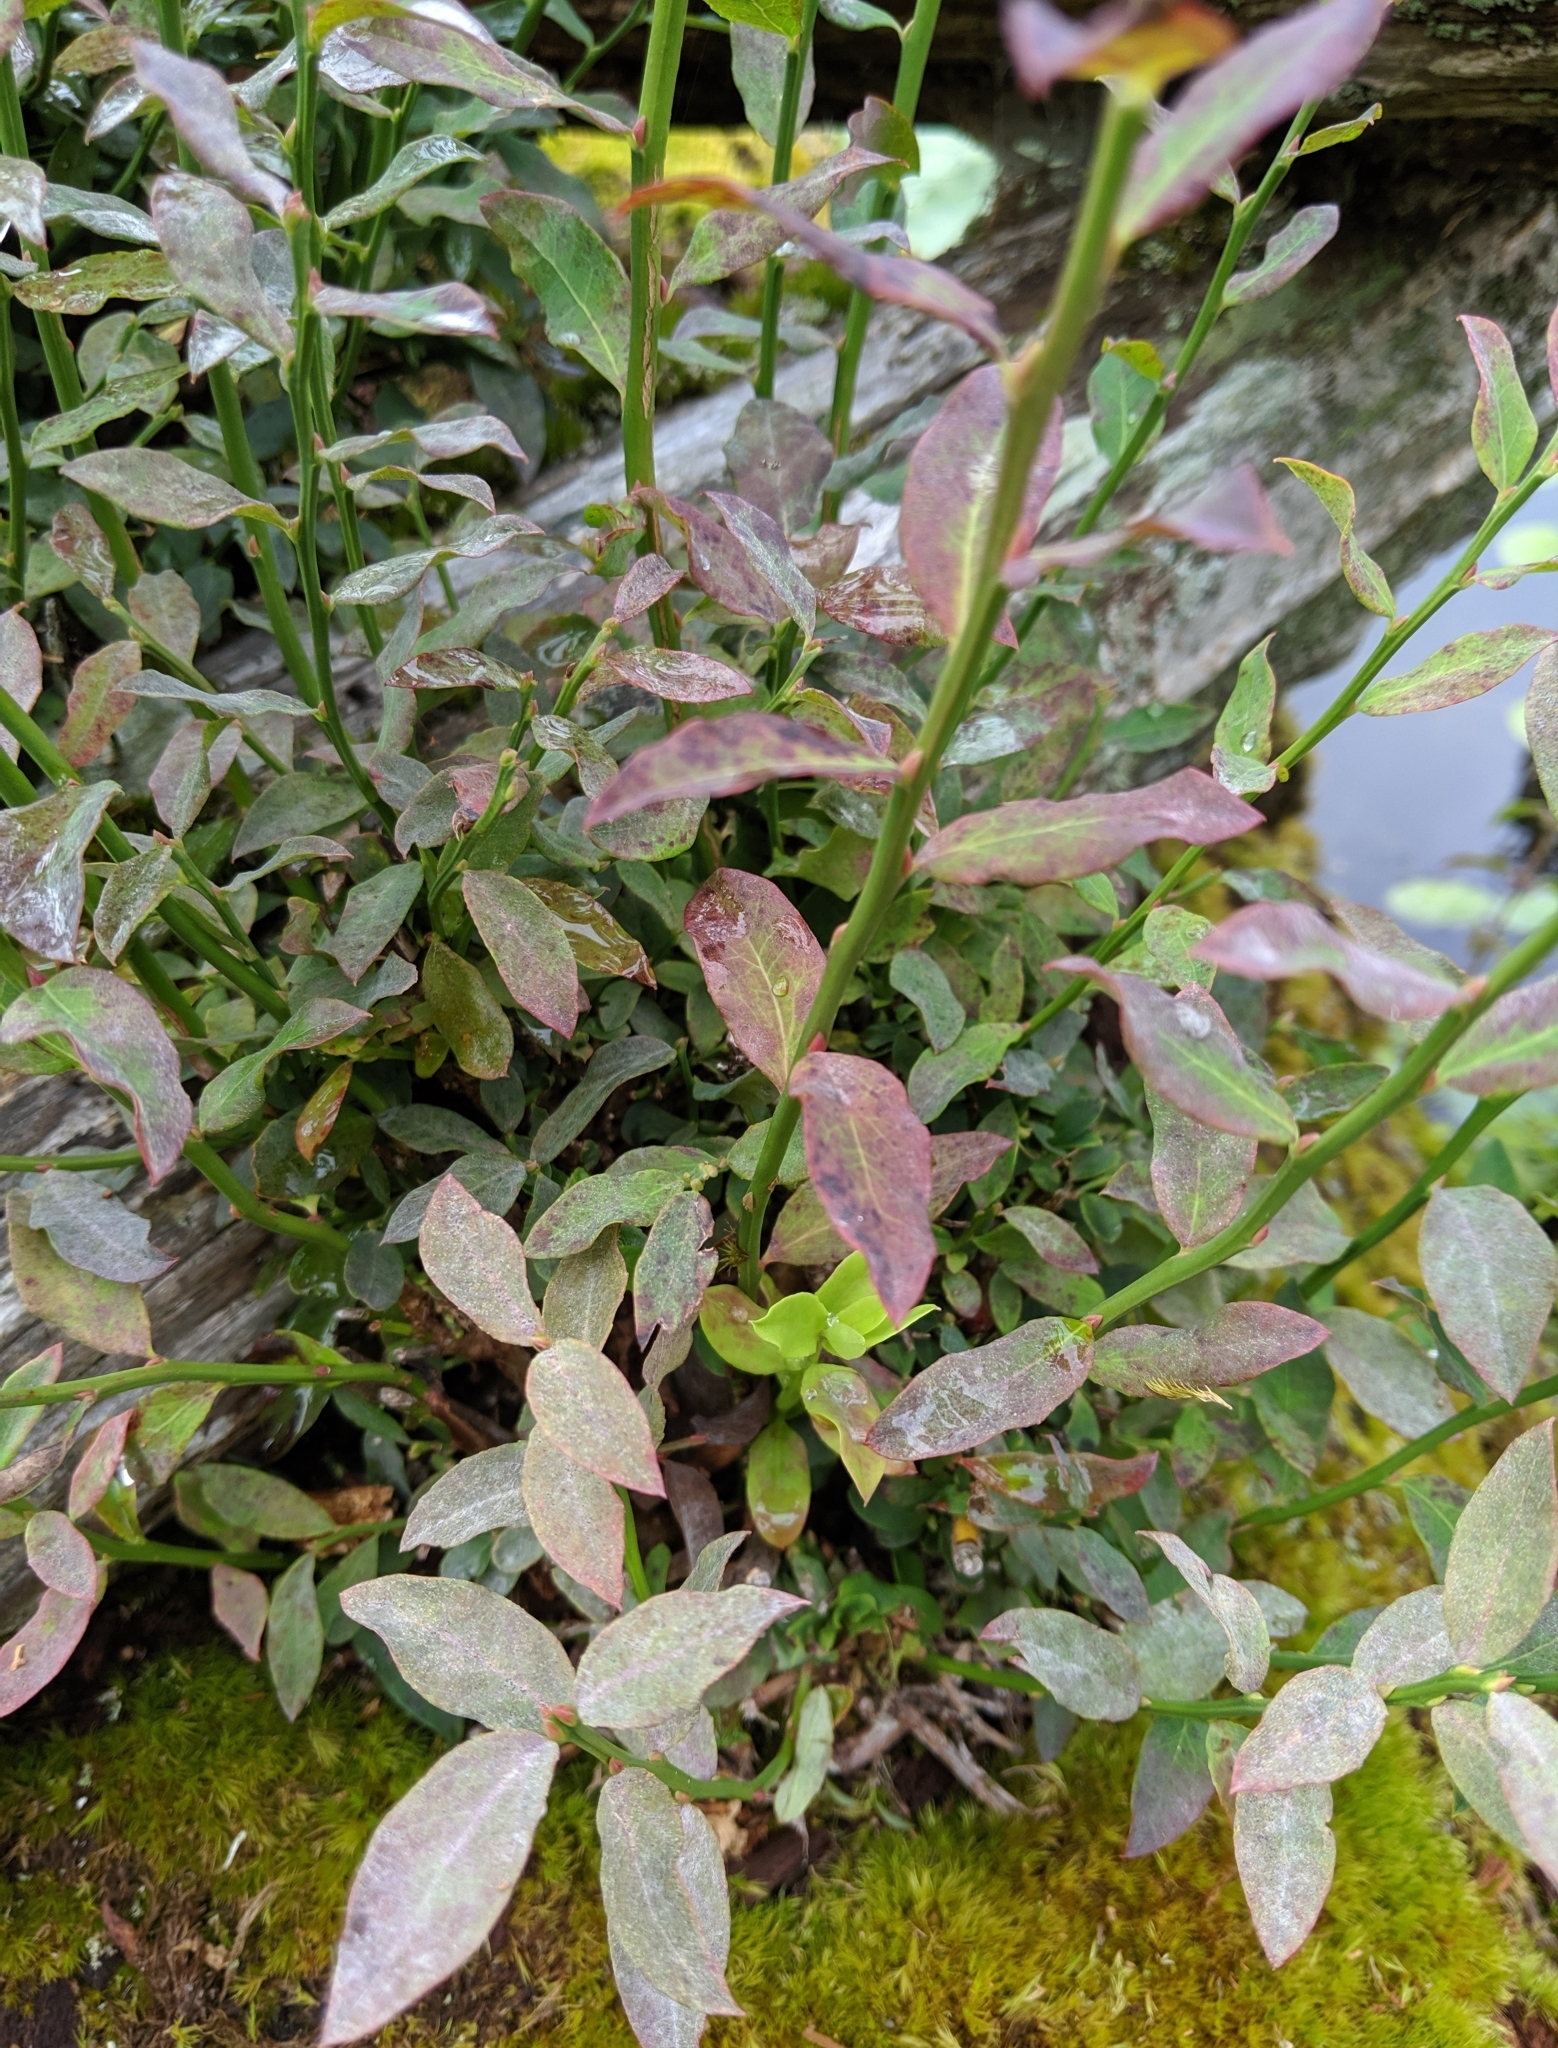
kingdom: Plantae
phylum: Tracheophyta
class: Magnoliopsida
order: Ericales
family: Ericaceae
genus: Vaccinium
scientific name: Vaccinium parvifolium
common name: Red-huckleberry
